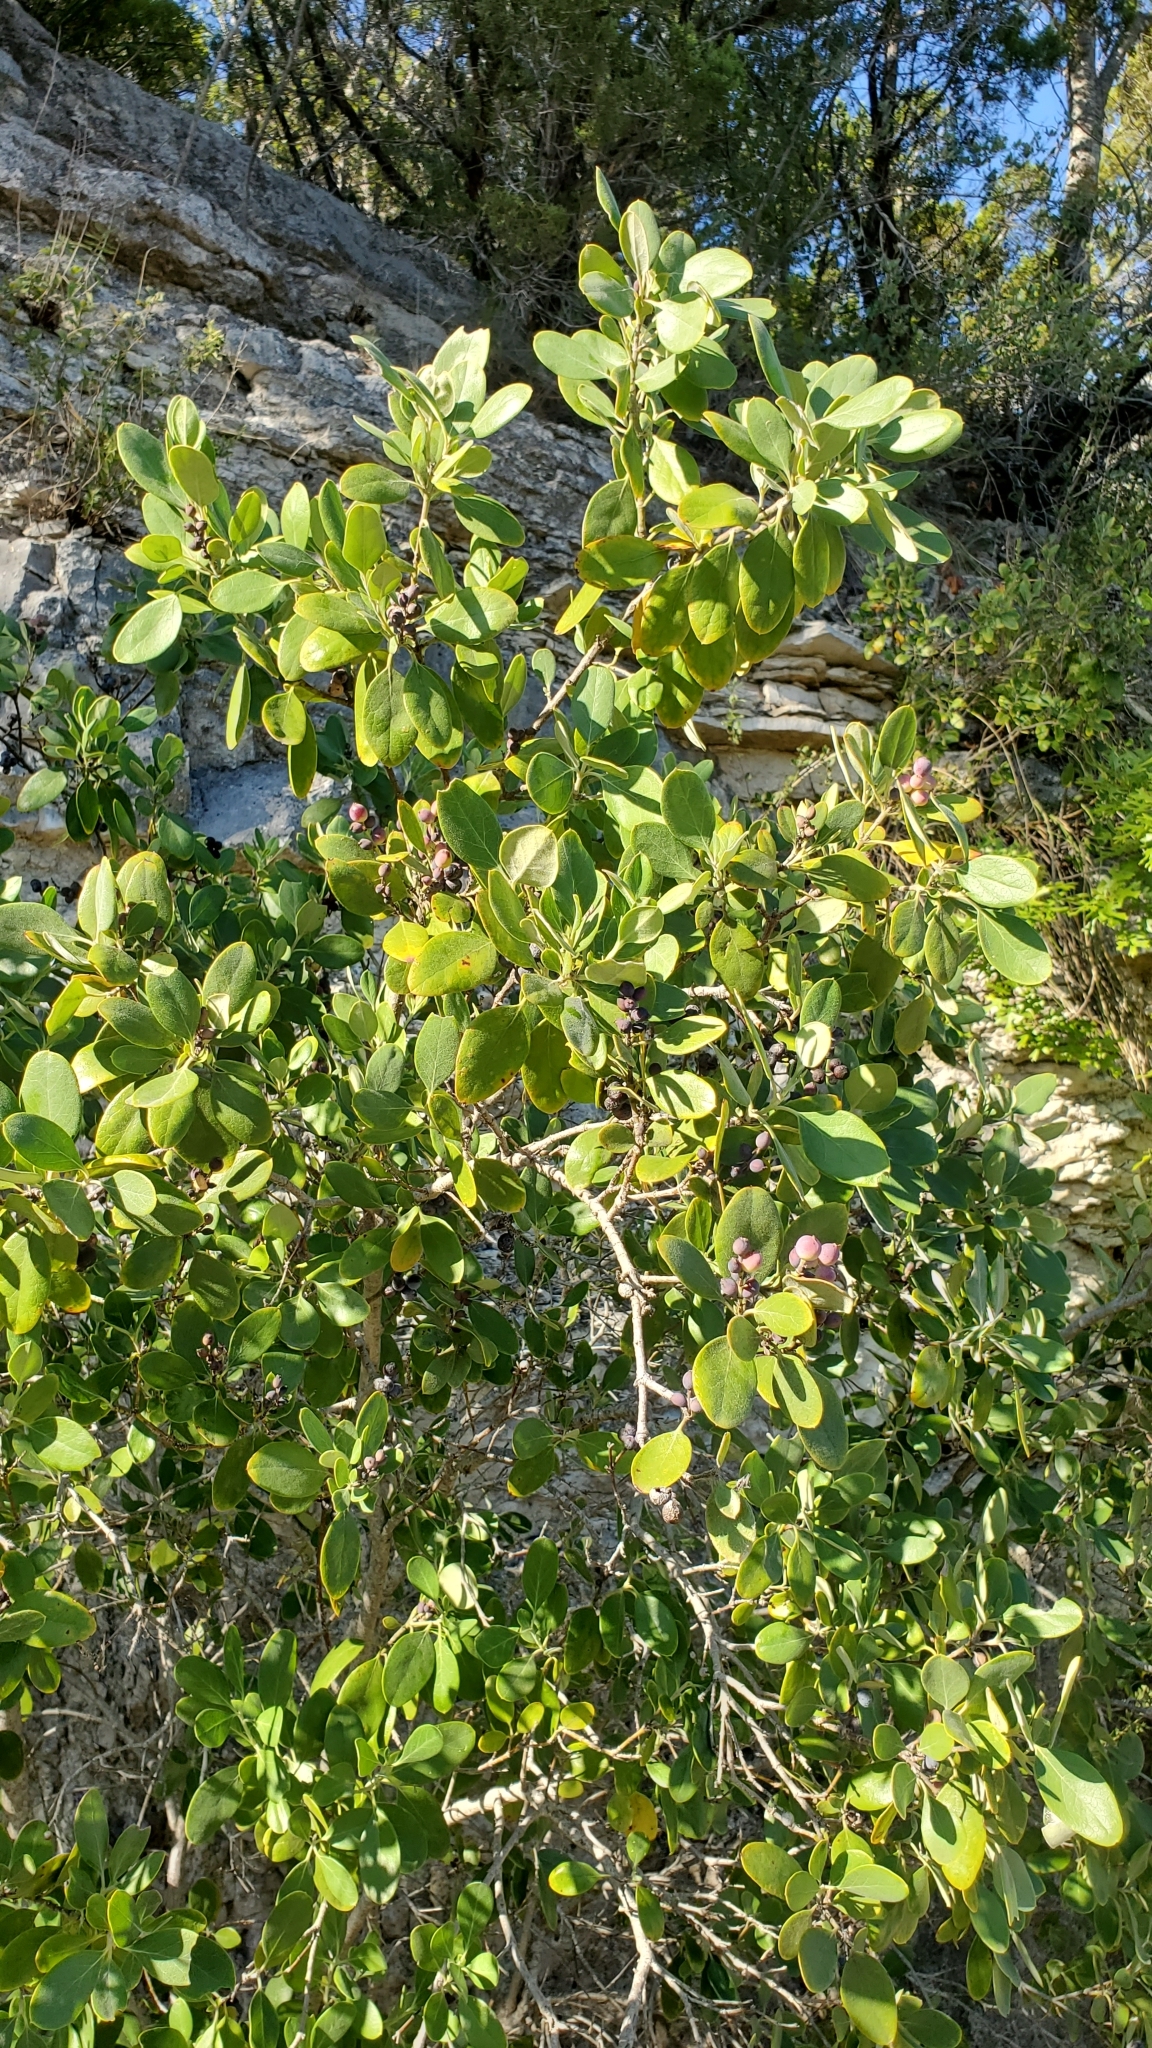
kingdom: Plantae
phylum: Tracheophyta
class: Magnoliopsida
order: Garryales
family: Garryaceae
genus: Garrya
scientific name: Garrya lindheimeri
